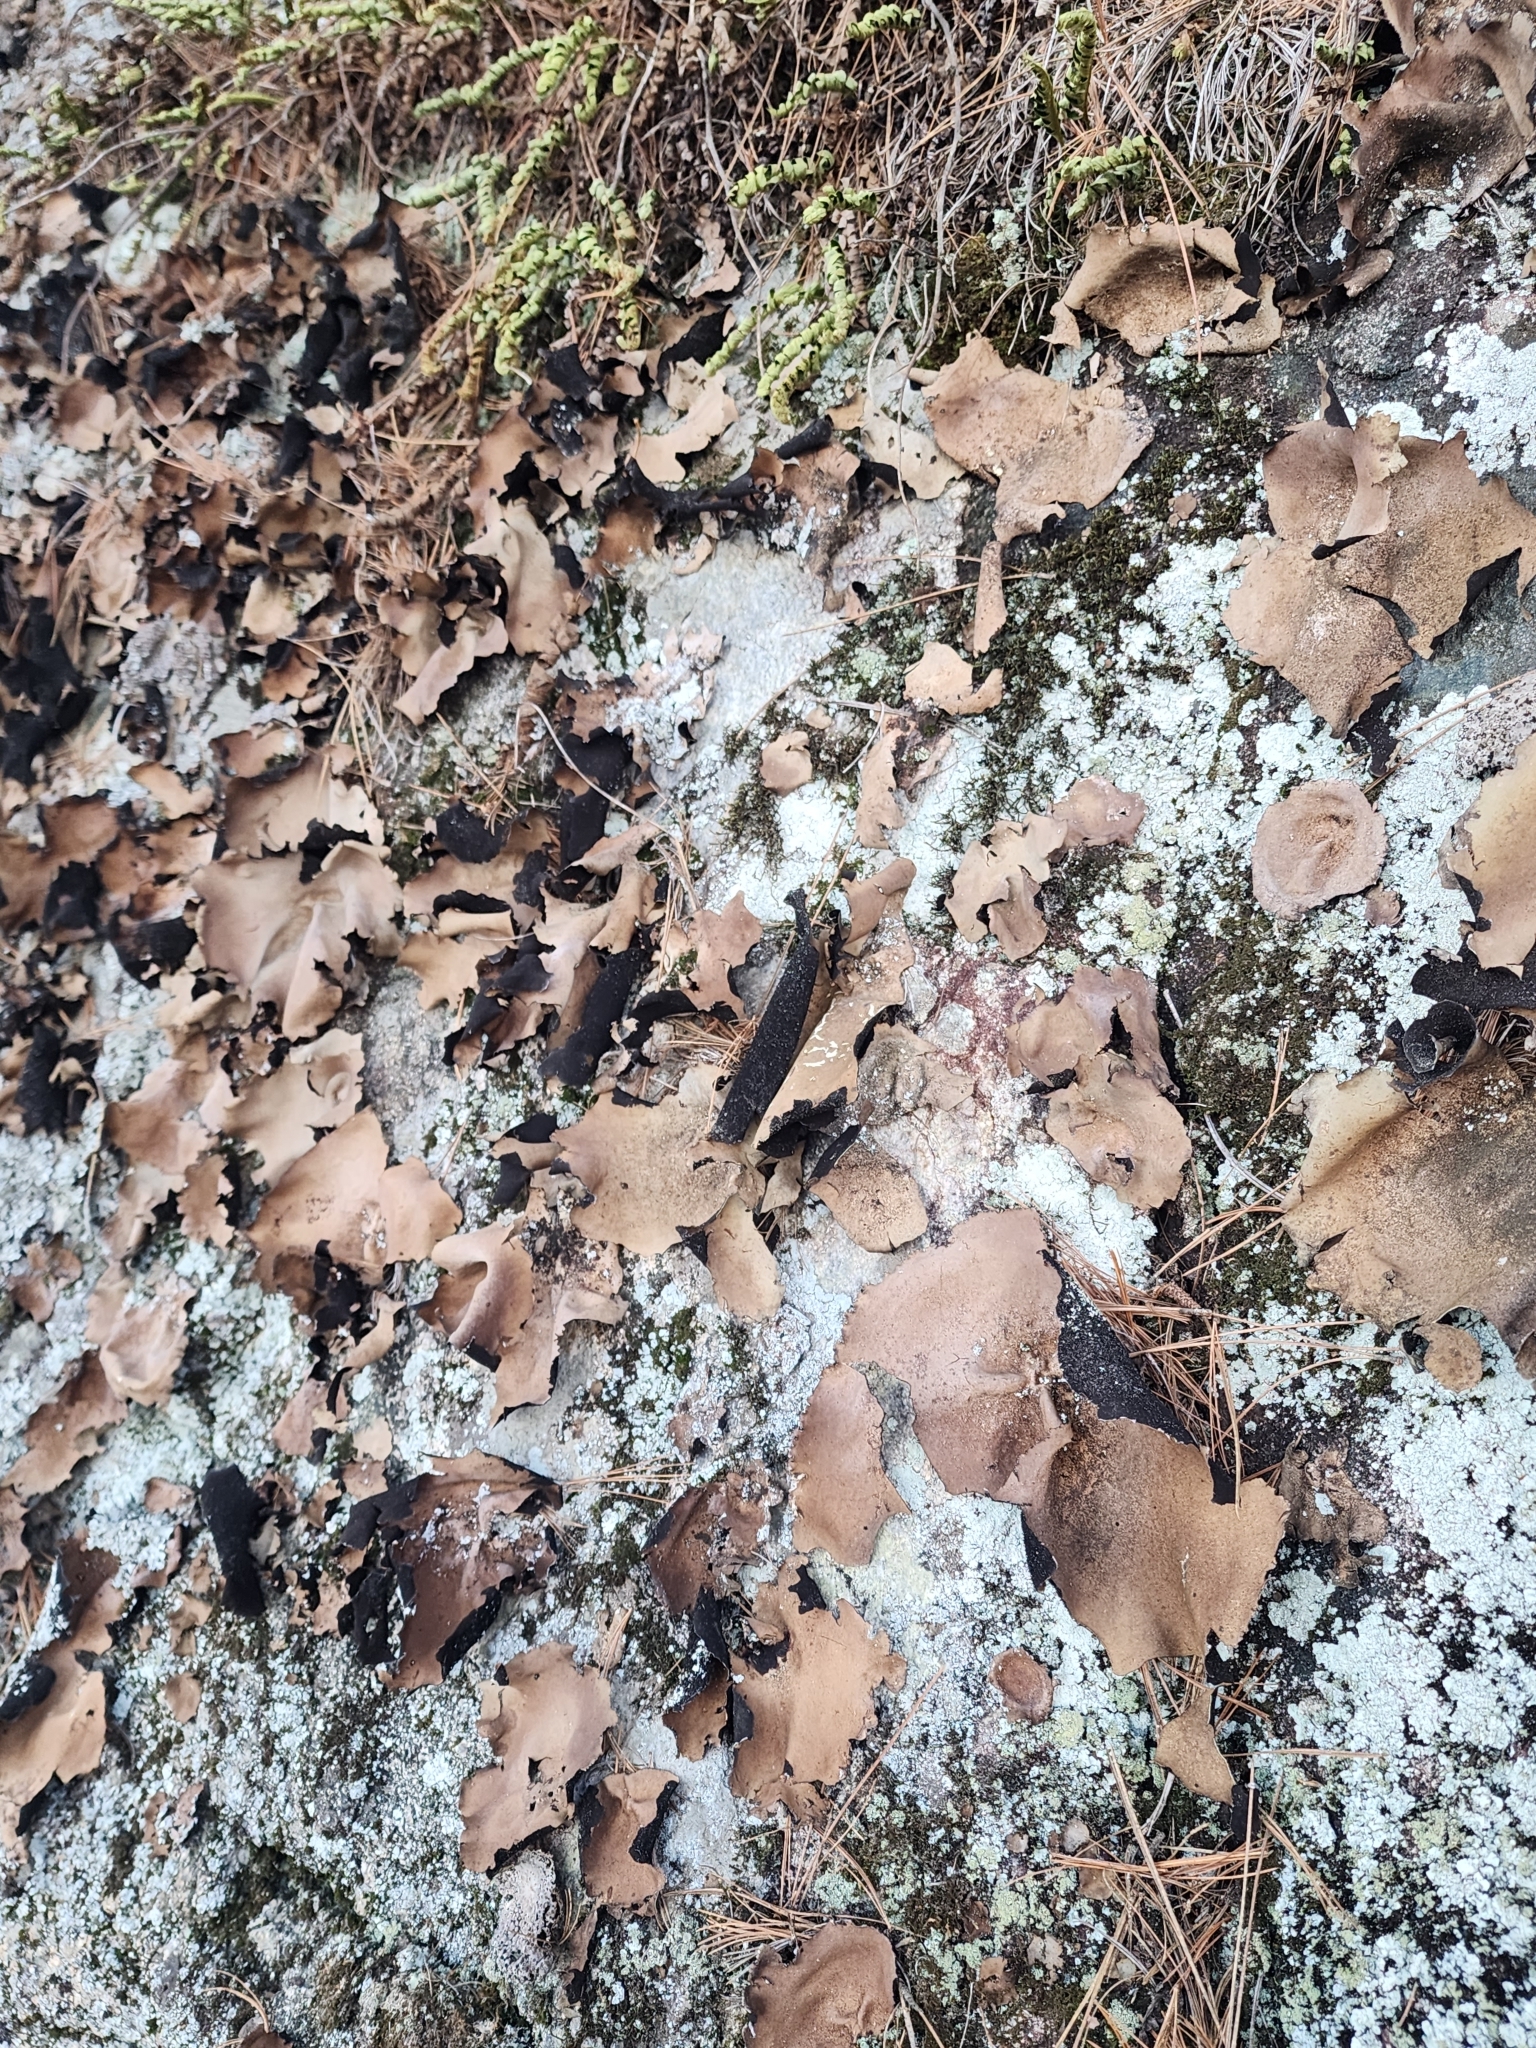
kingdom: Fungi
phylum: Ascomycota
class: Lecanoromycetes
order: Umbilicariales
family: Umbilicariaceae
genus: Umbilicaria
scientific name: Umbilicaria mammulata
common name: Smooth rock tripe
